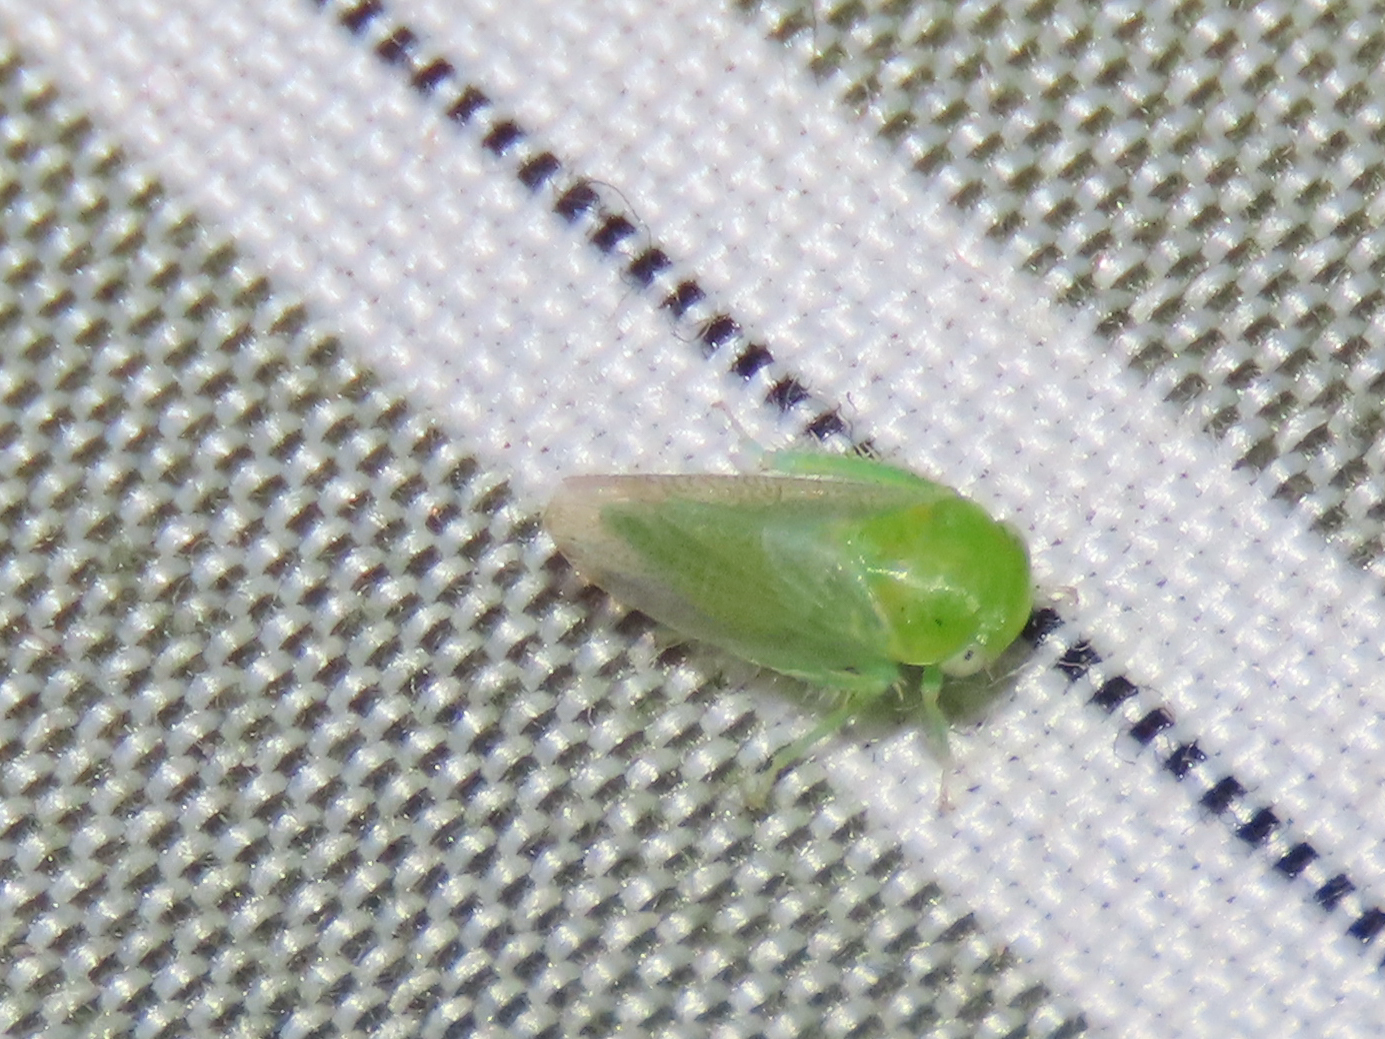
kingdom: Animalia
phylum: Arthropoda
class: Insecta
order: Hemiptera
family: Cicadellidae
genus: Penestragania
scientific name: Penestragania robusta
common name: Robust leafhopper
